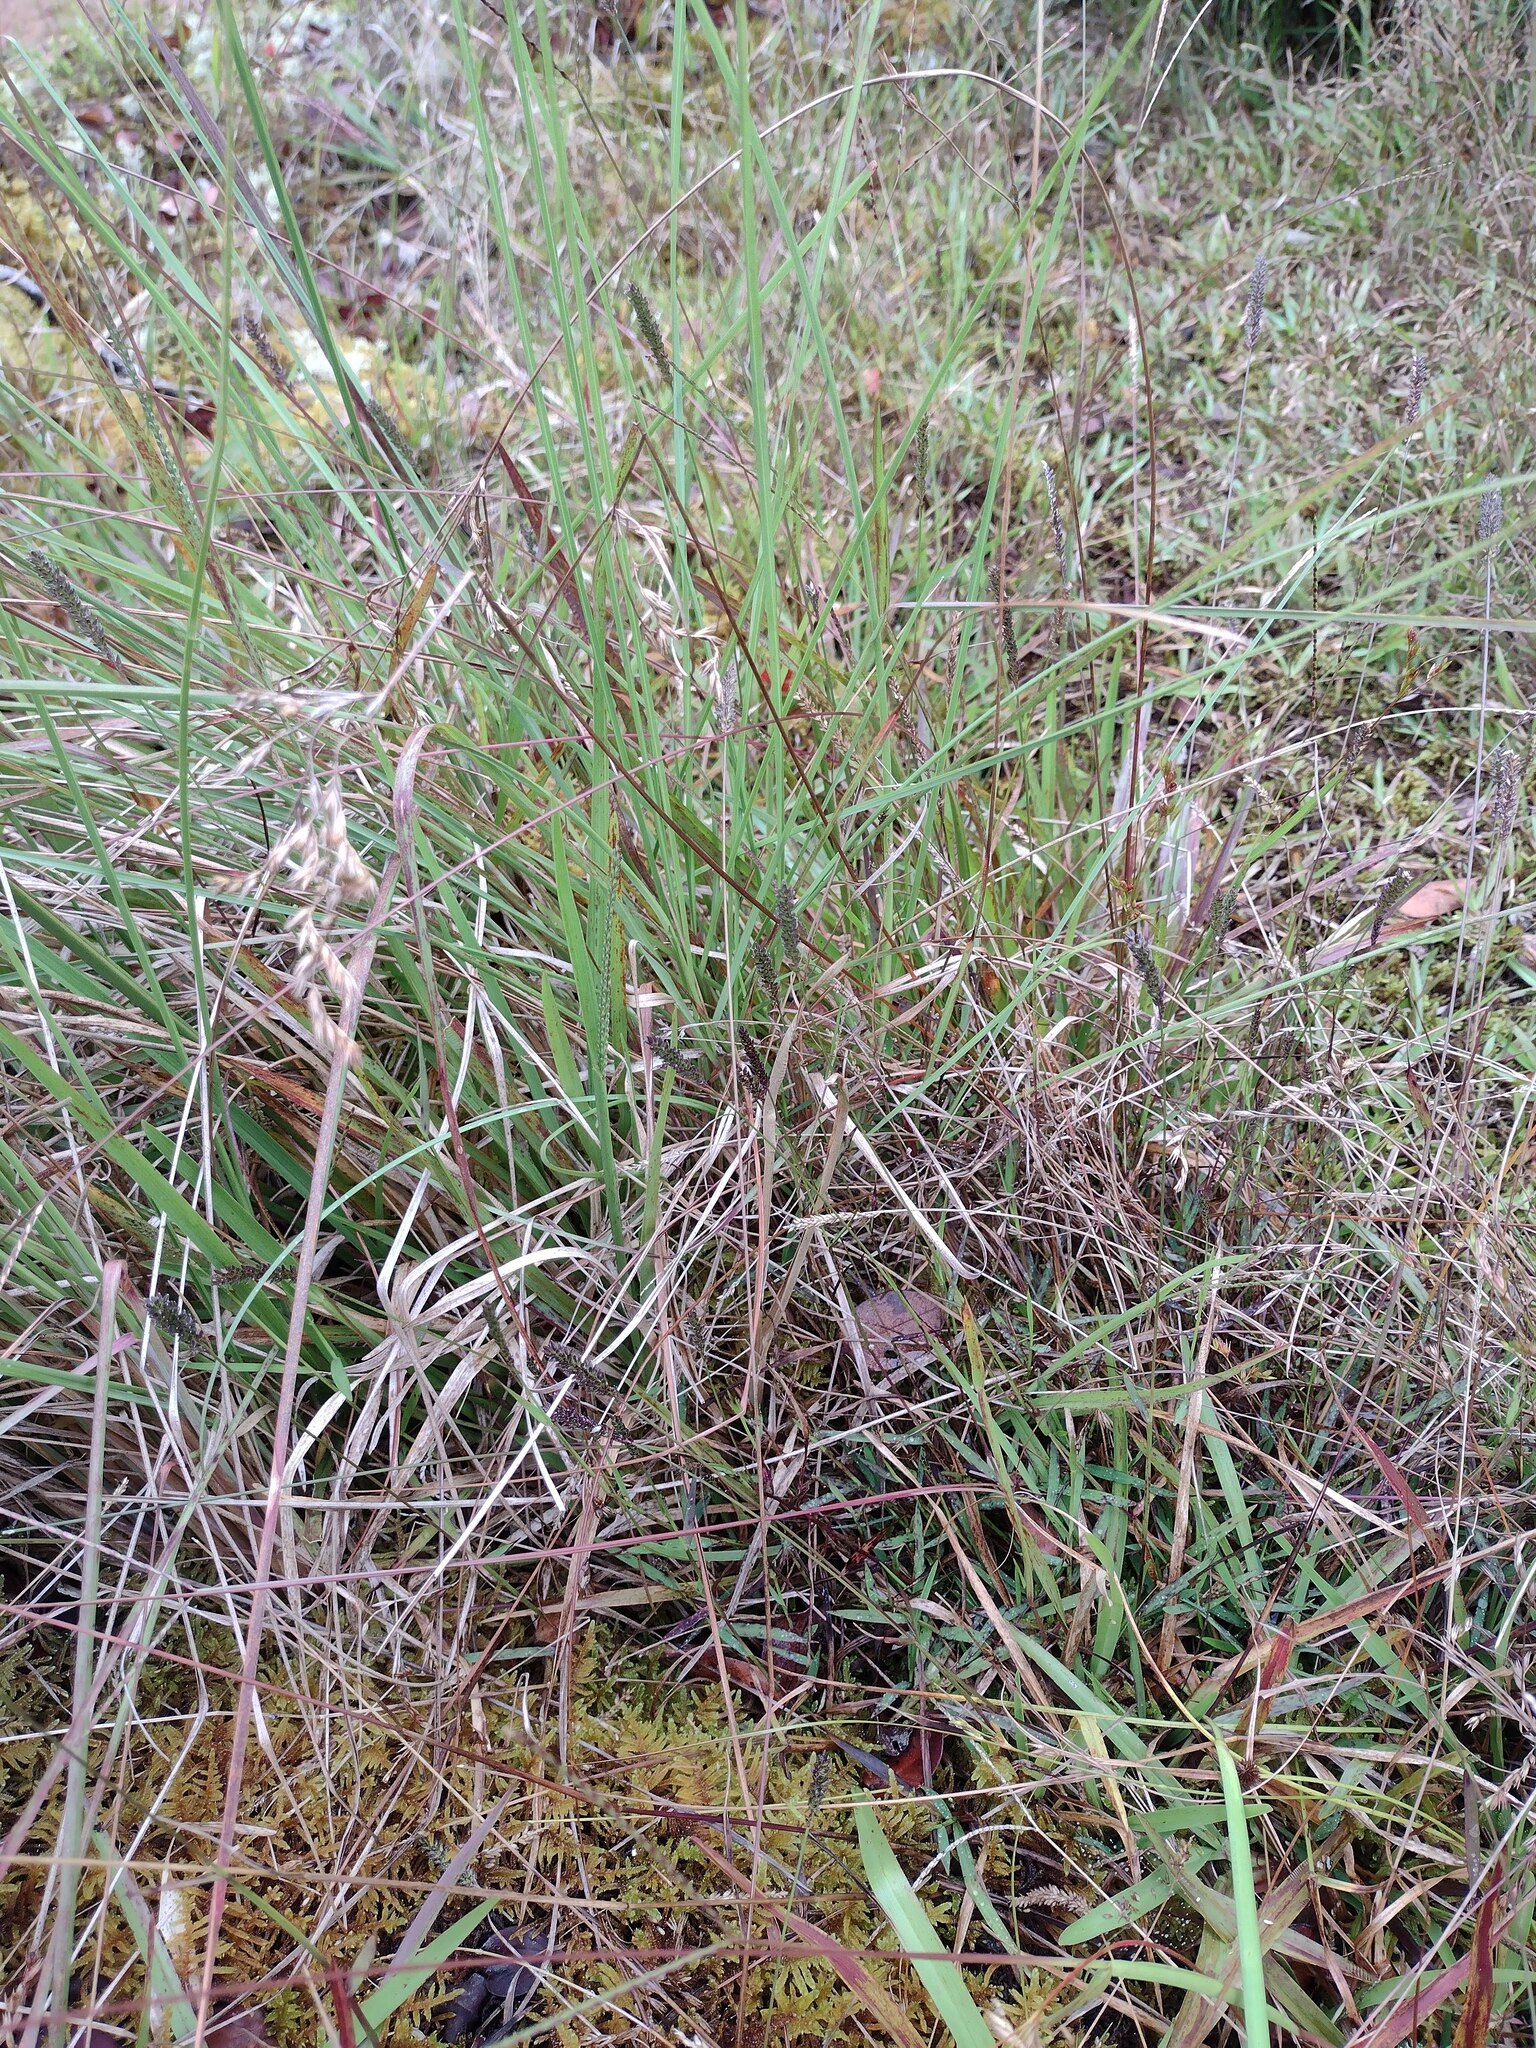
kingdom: Plantae
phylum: Tracheophyta
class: Liliopsida
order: Poales
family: Poaceae
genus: Axonopus
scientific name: Axonopus fissifolius
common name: Common carpetgrass
